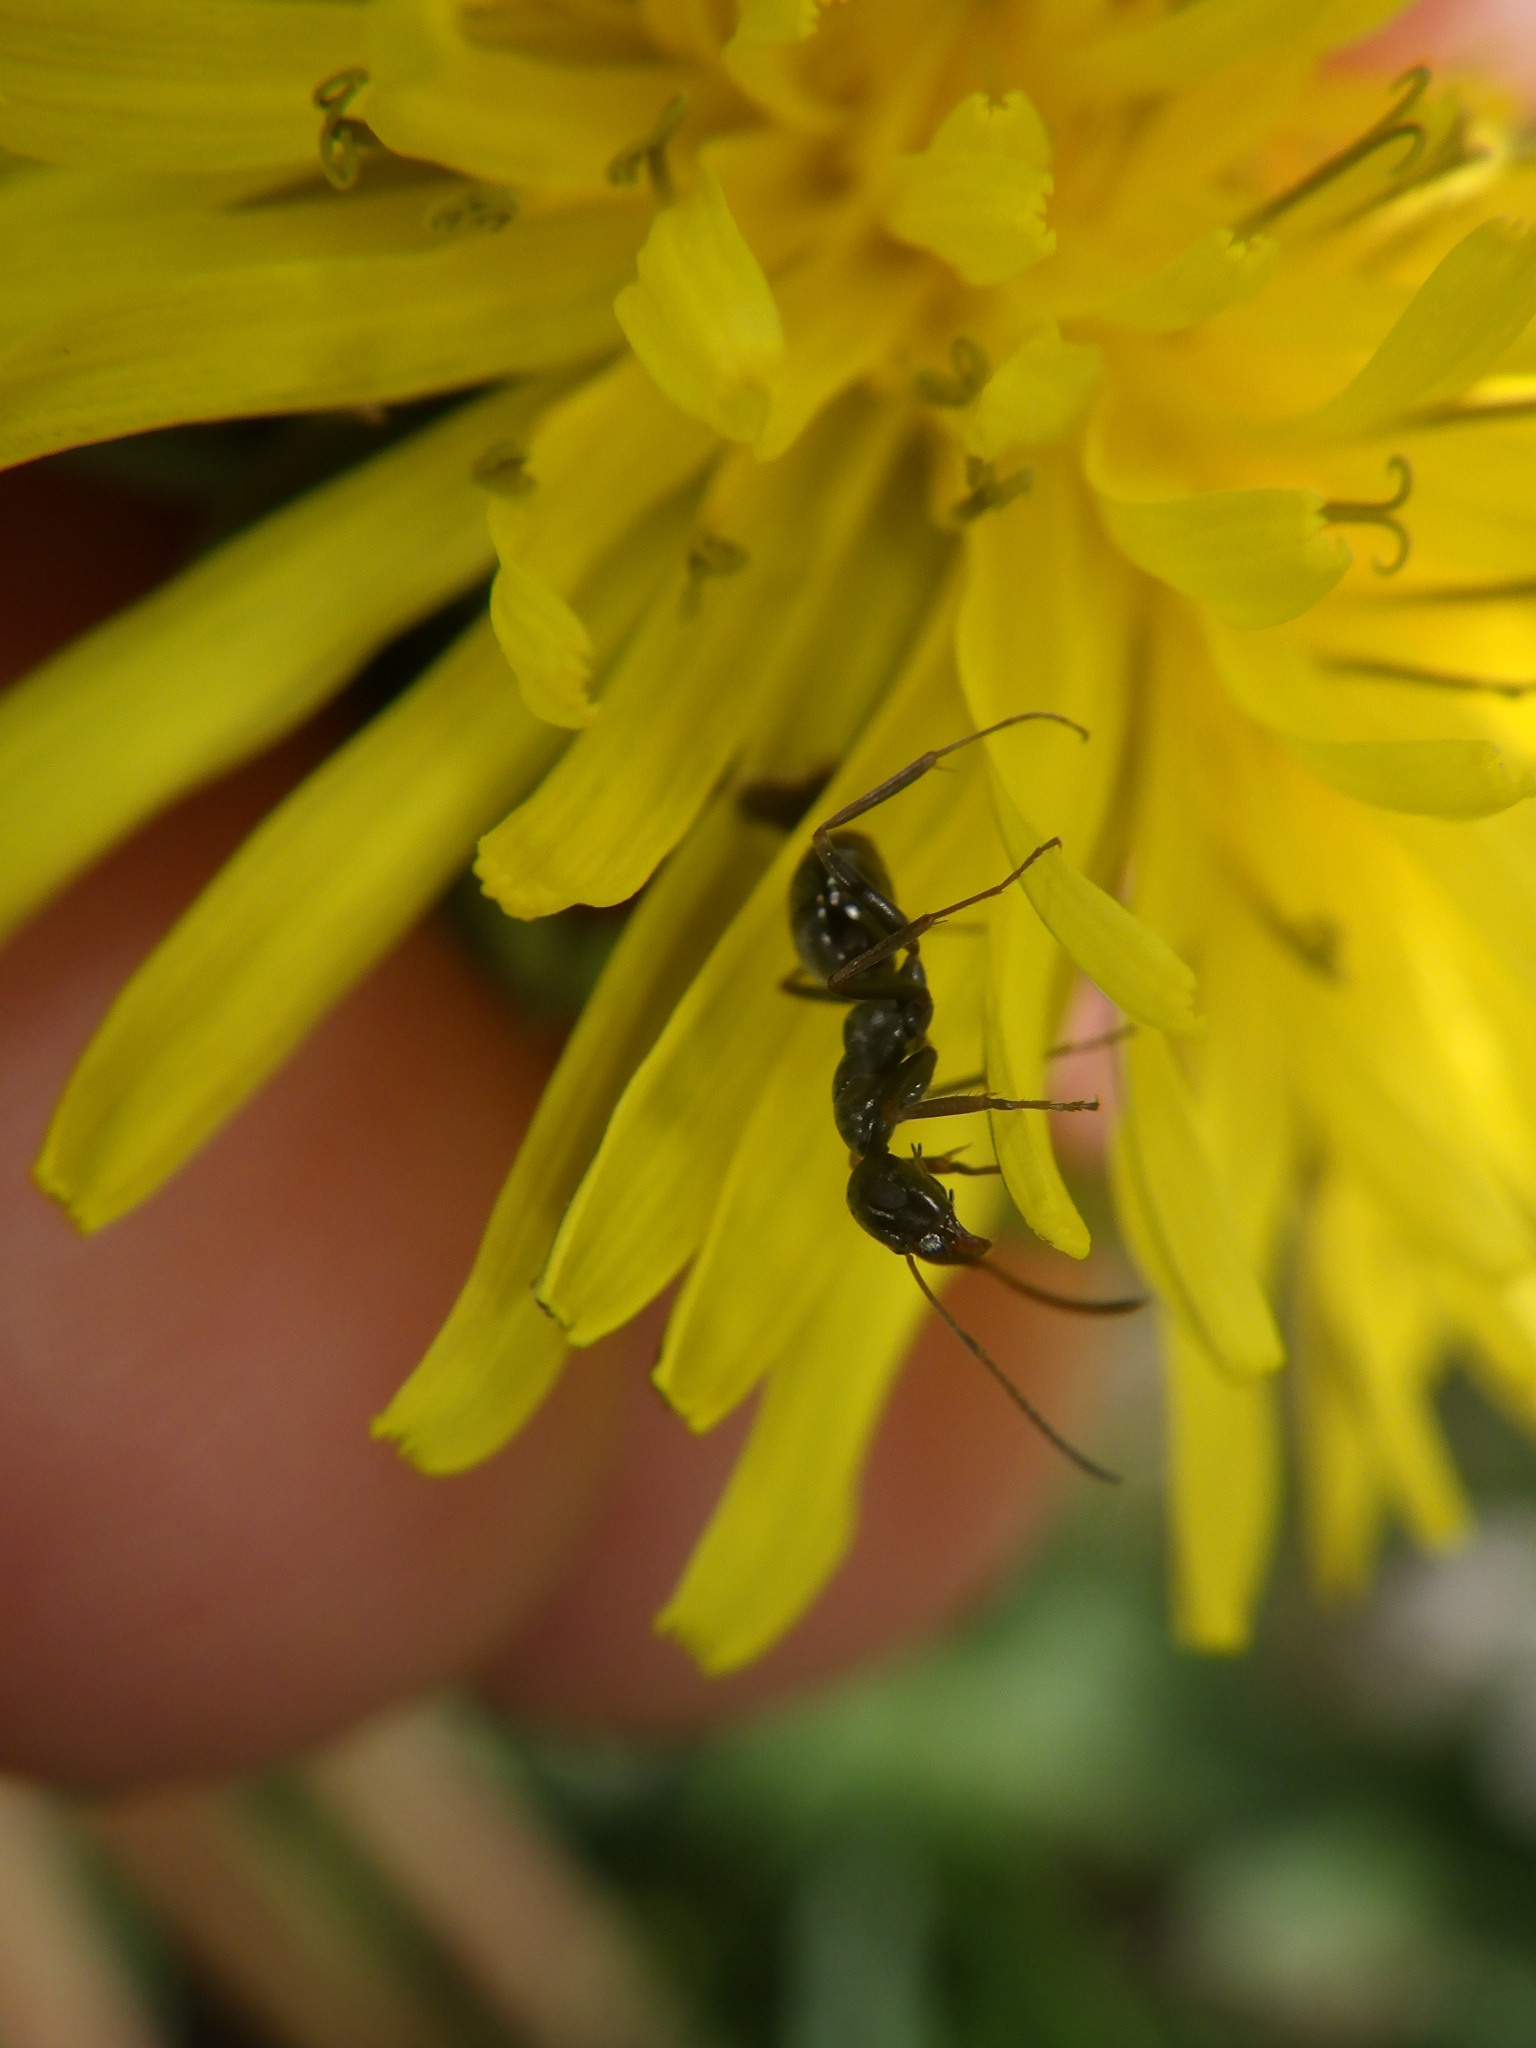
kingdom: Animalia
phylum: Arthropoda
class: Insecta
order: Hymenoptera
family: Formicidae
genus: Formica
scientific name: Formica
